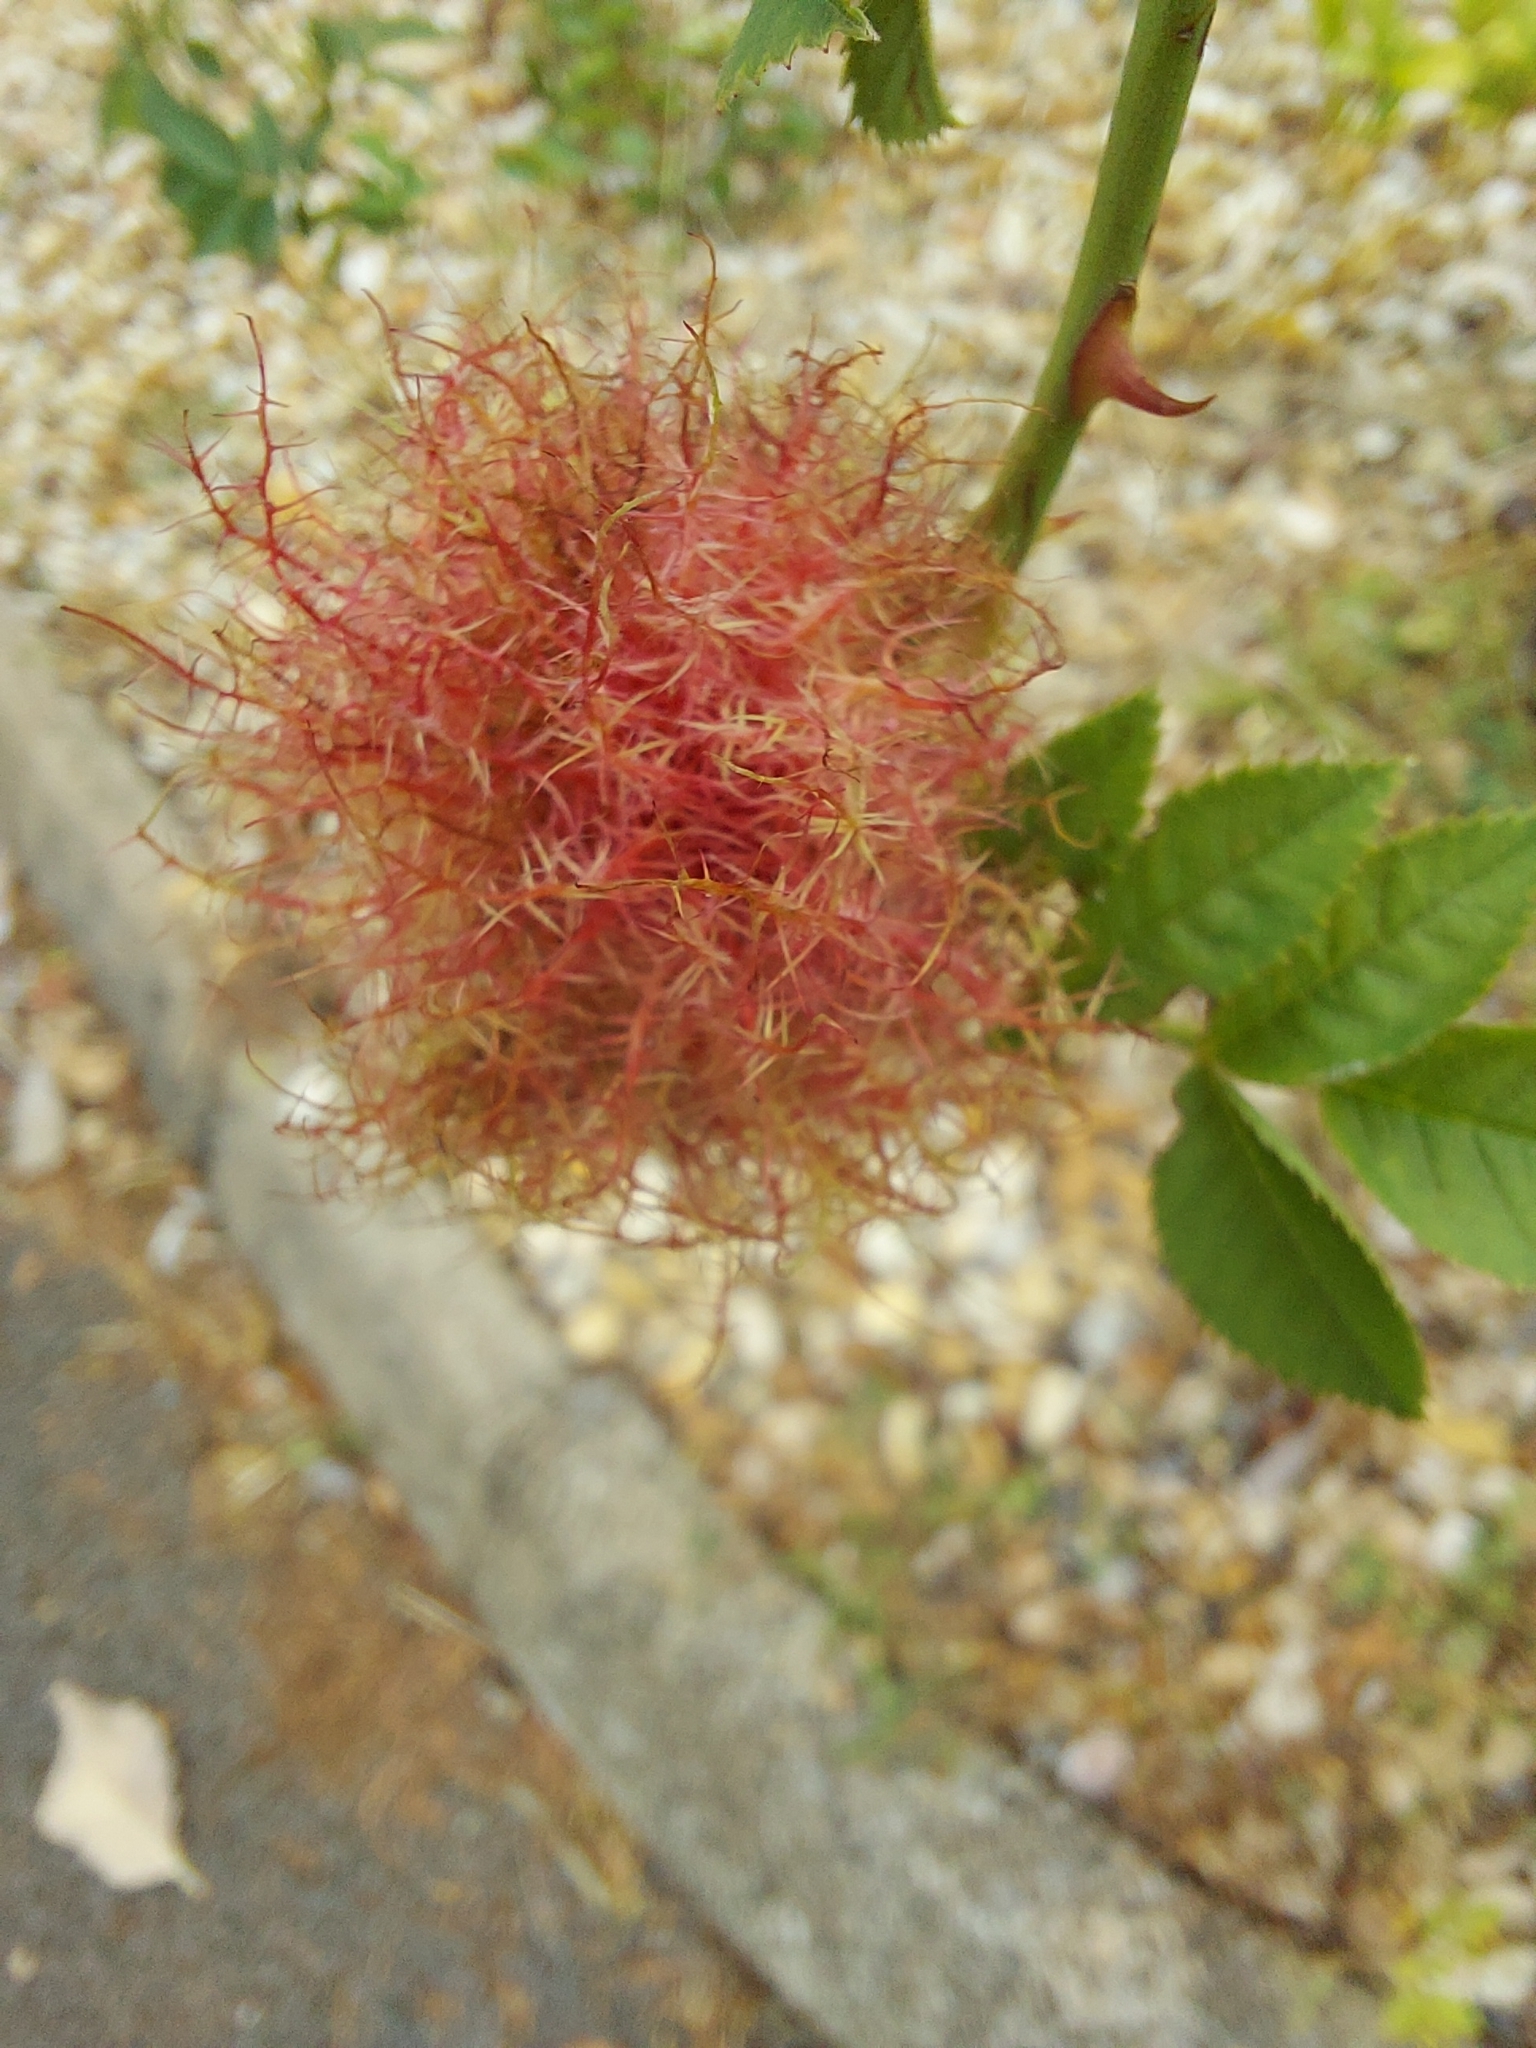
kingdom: Animalia
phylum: Arthropoda
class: Insecta
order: Hymenoptera
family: Cynipidae
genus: Diplolepis
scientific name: Diplolepis rosae
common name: Bedeguar gall
